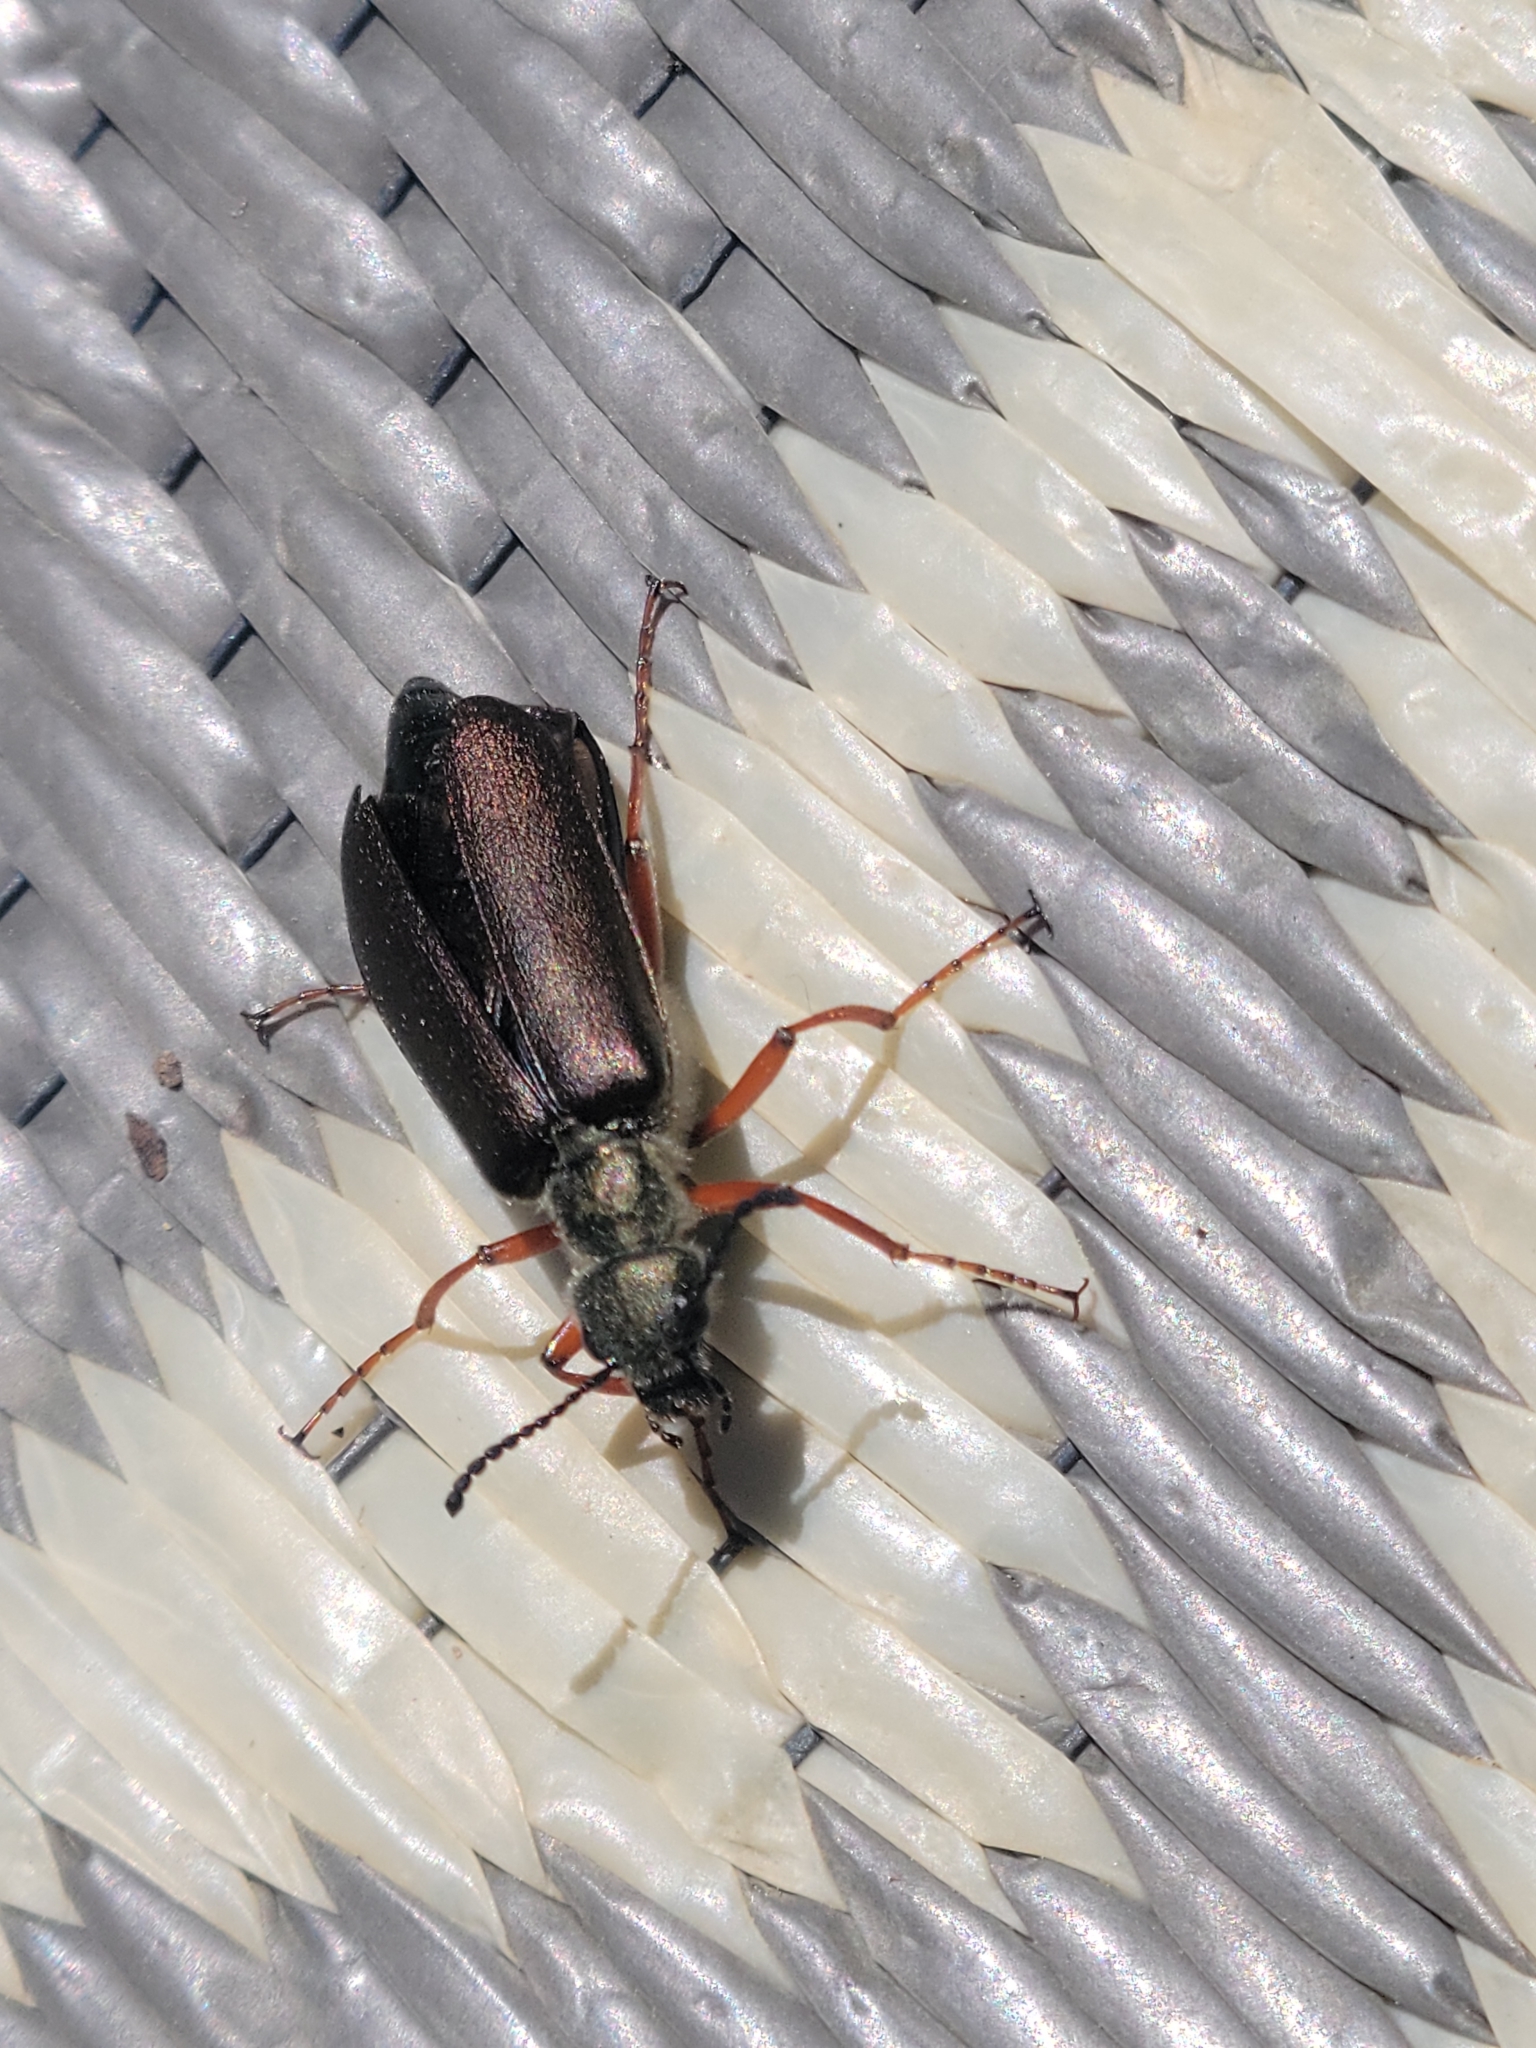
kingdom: Animalia
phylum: Arthropoda
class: Insecta
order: Coleoptera
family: Meloidae
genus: Lytta
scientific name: Lytta aenea
